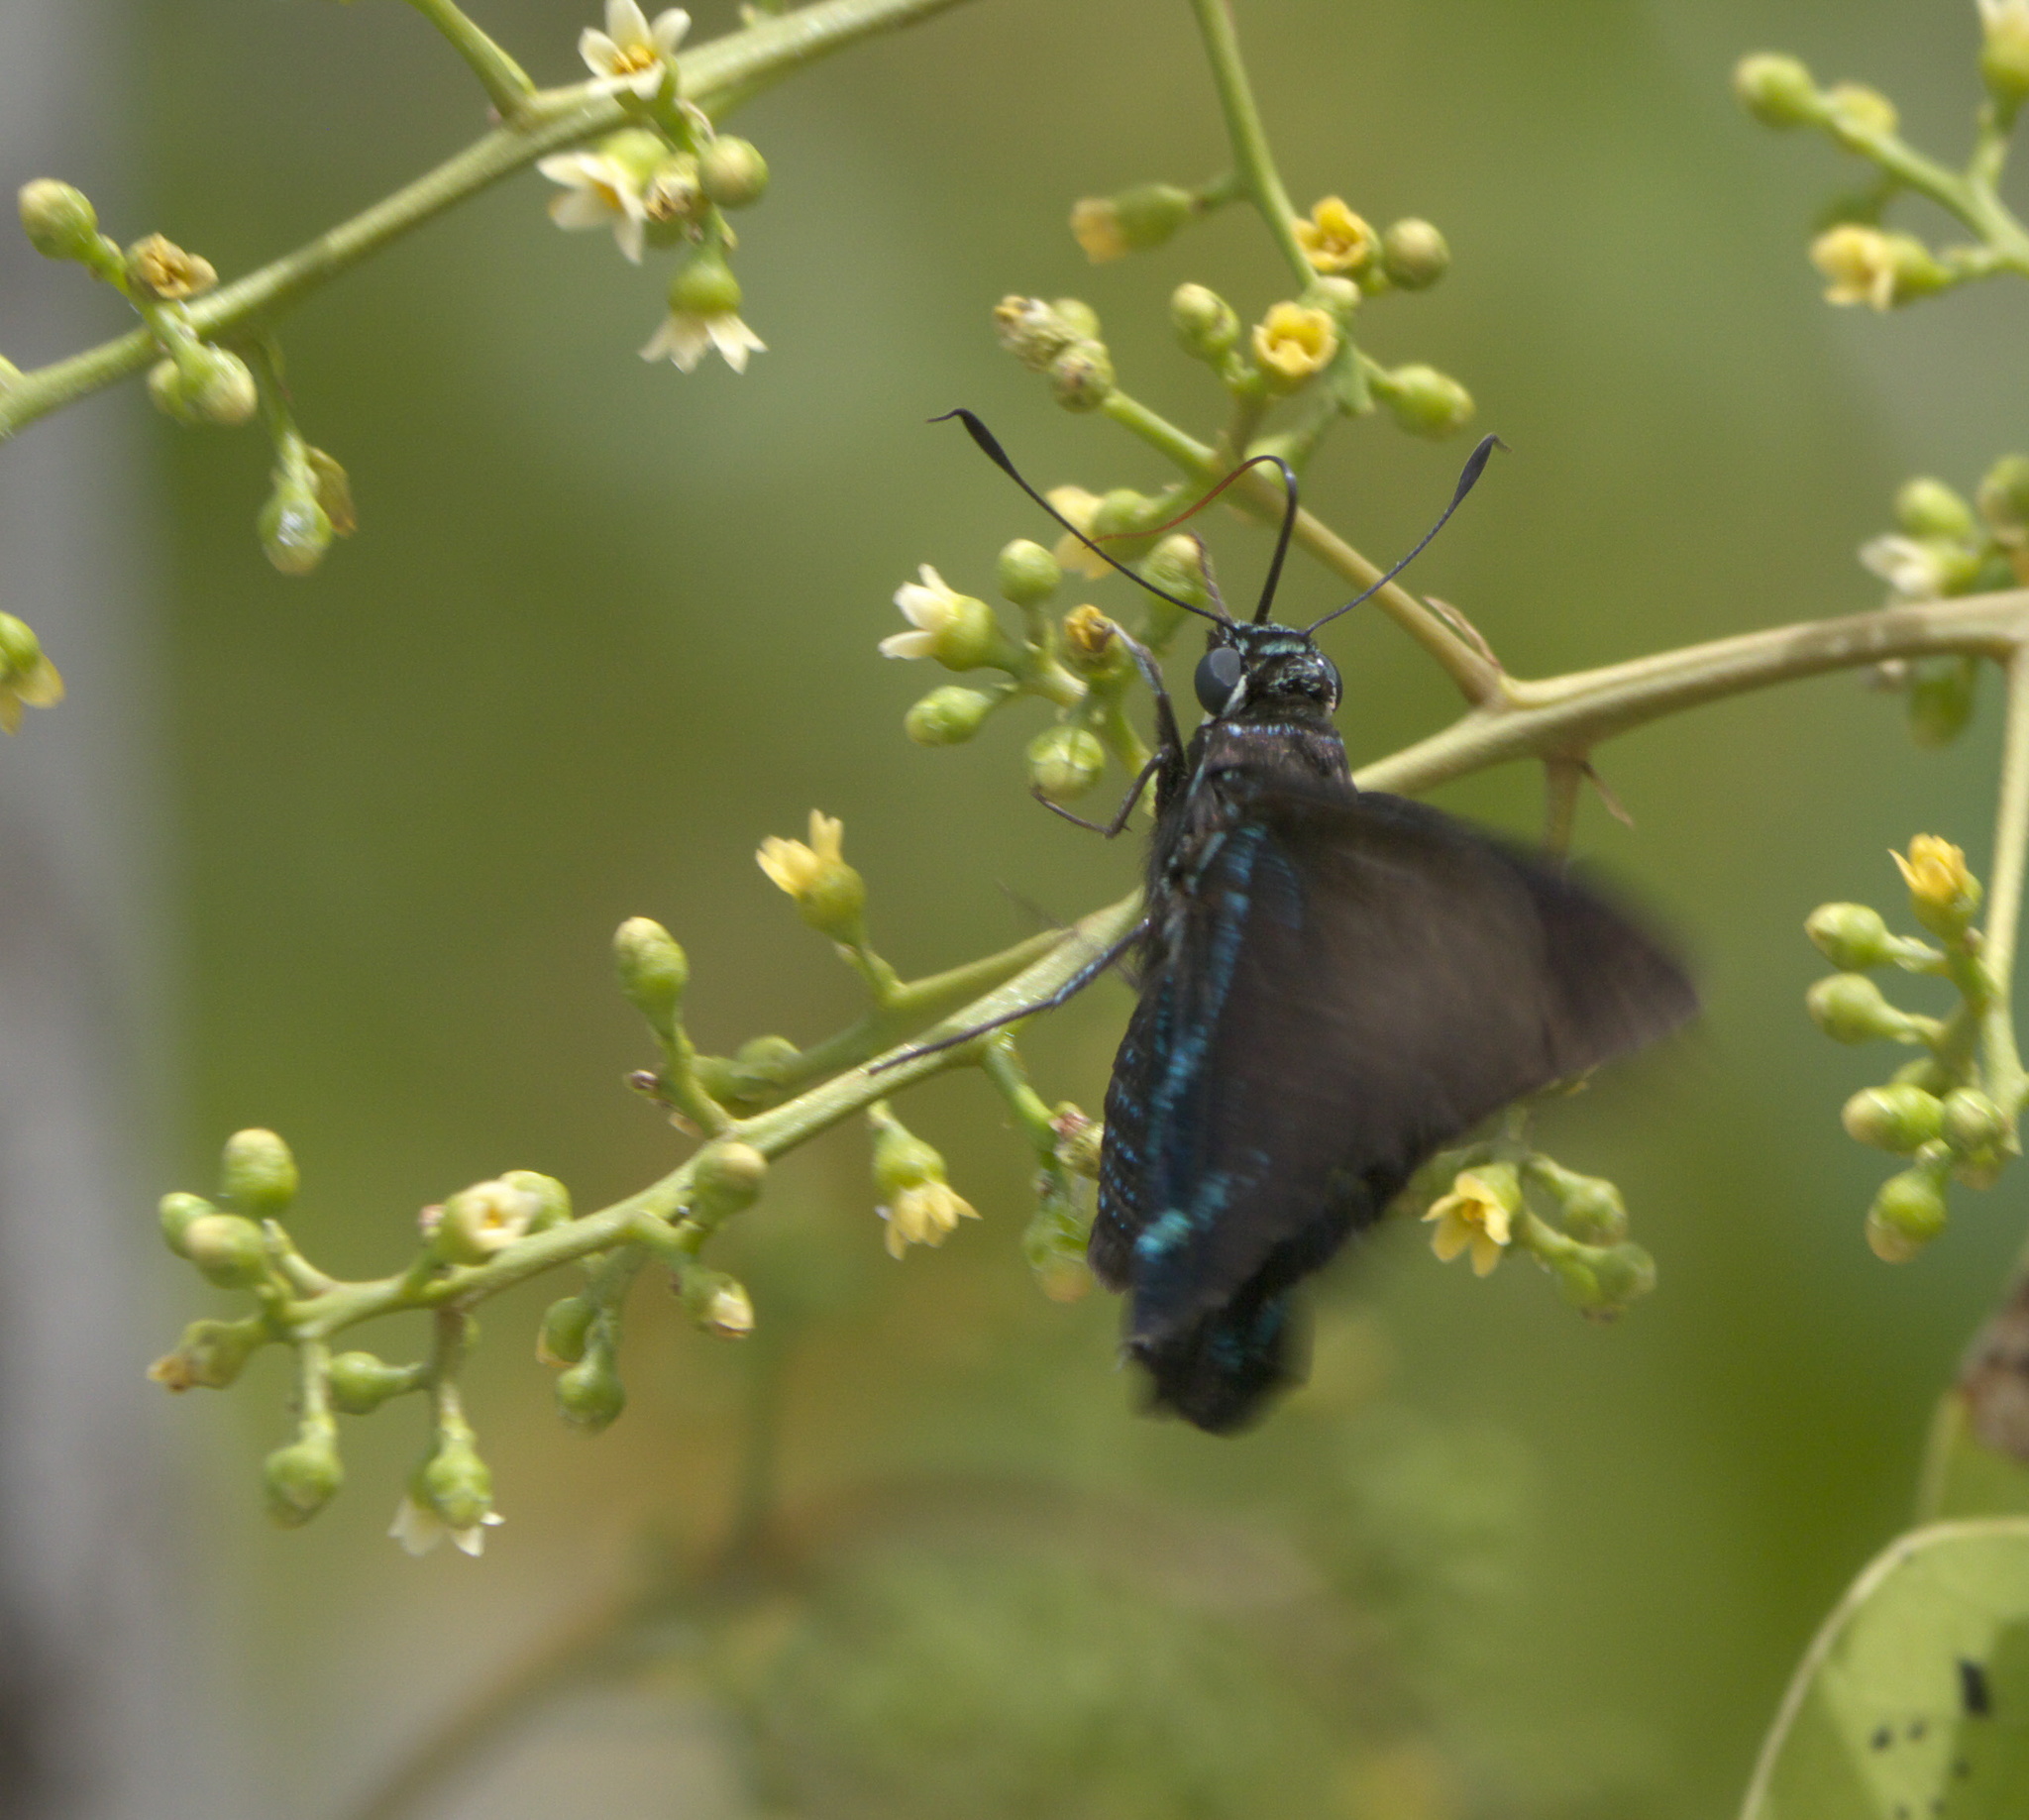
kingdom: Animalia
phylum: Arthropoda
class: Insecta
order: Lepidoptera
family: Hesperiidae
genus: Phocides
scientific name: Phocides pigmalion
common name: Mangrove skipper
